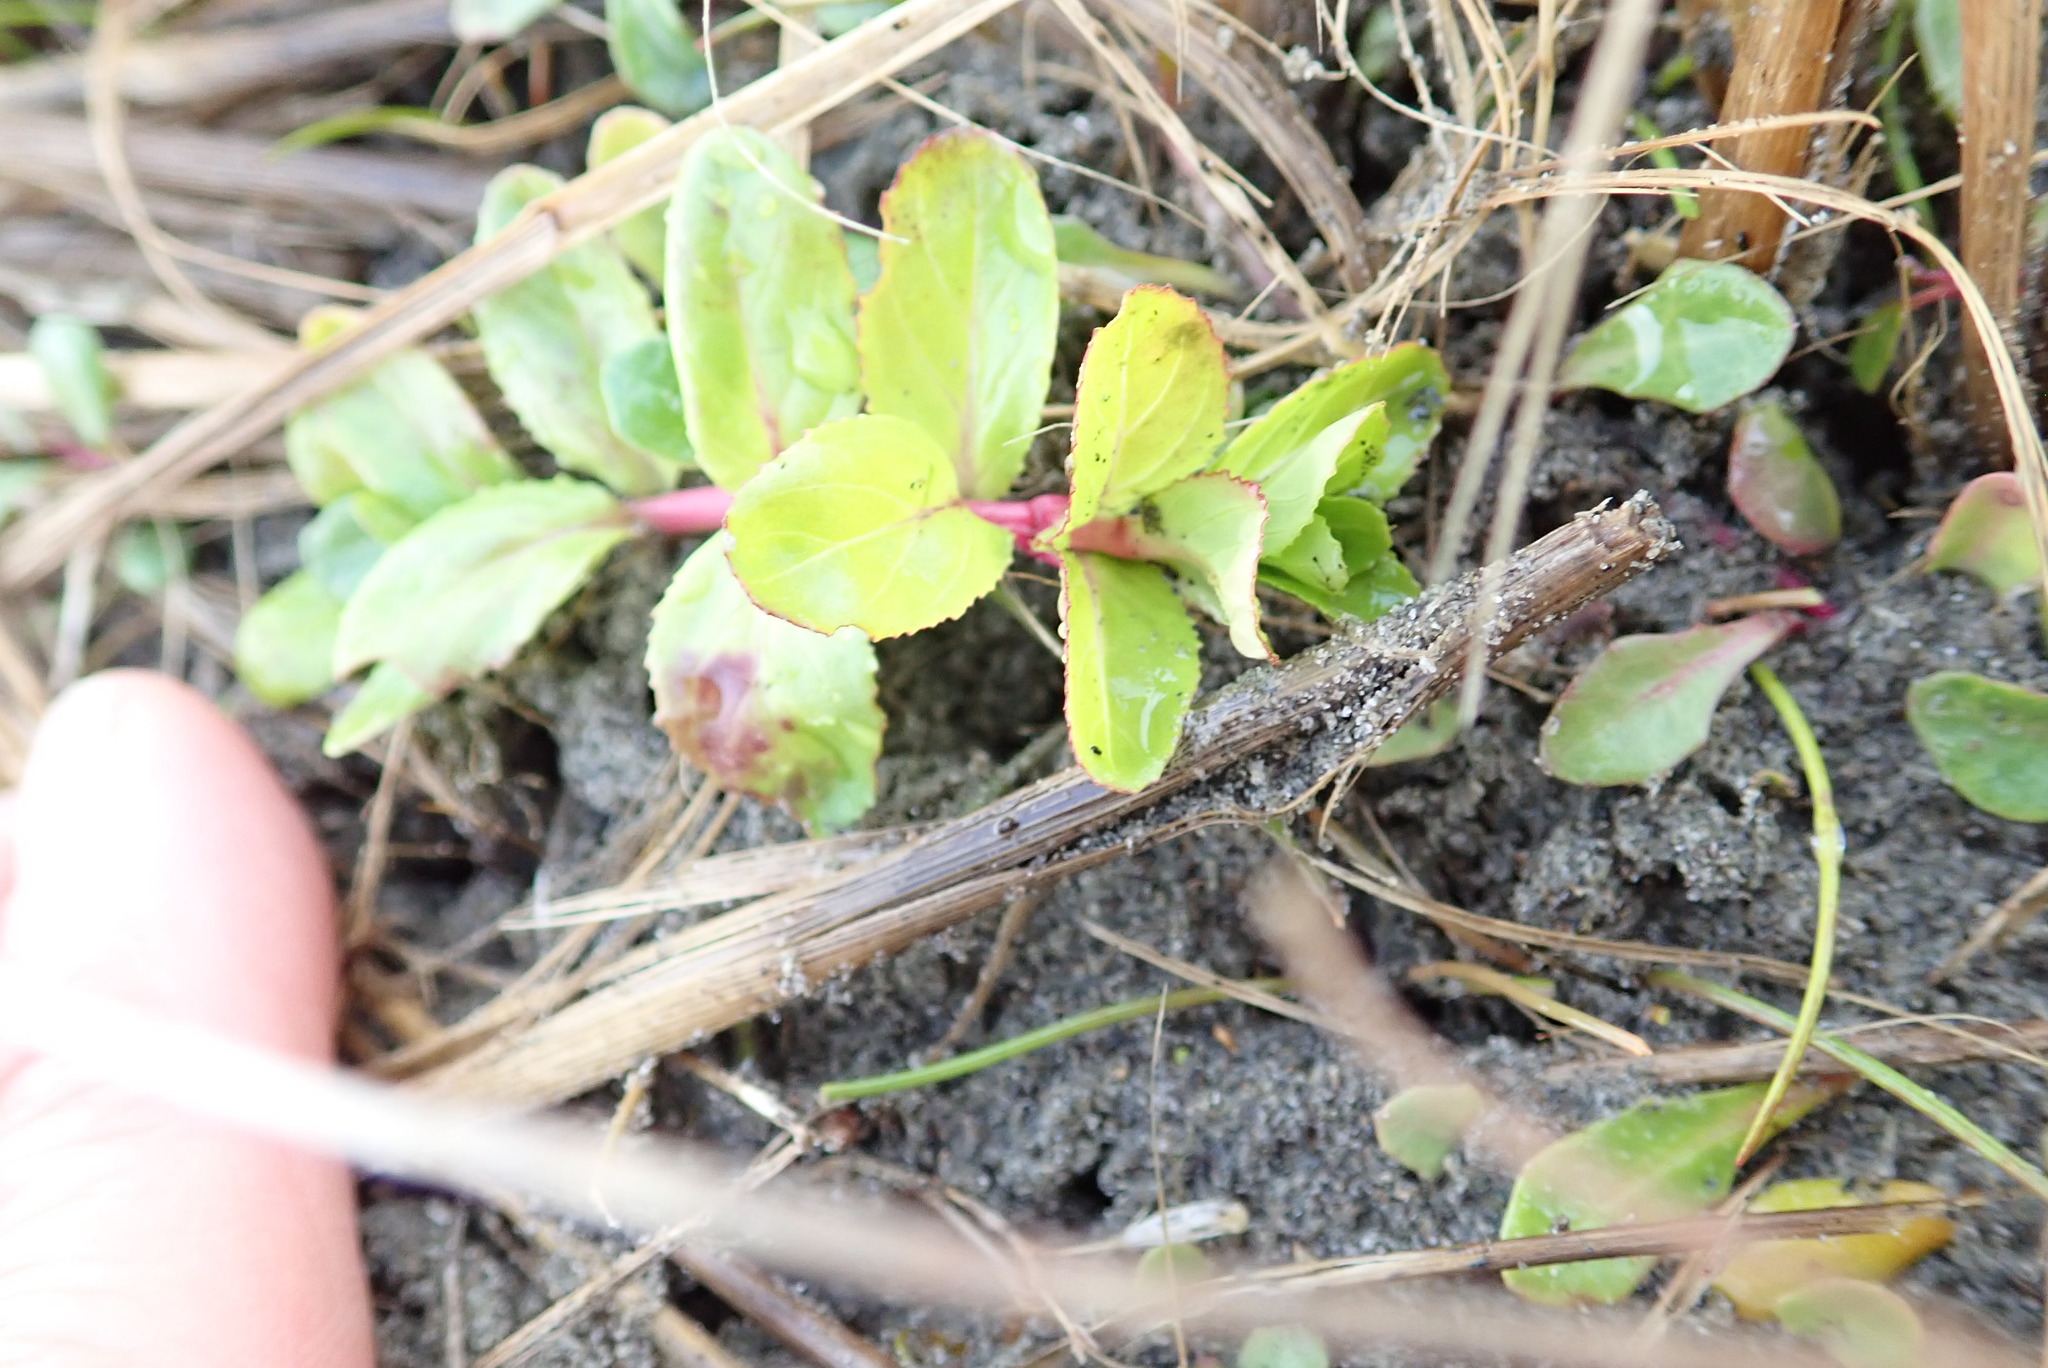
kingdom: Plantae
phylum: Tracheophyta
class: Magnoliopsida
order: Myrtales
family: Onagraceae
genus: Epilobium
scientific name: Epilobium billardiereanum
